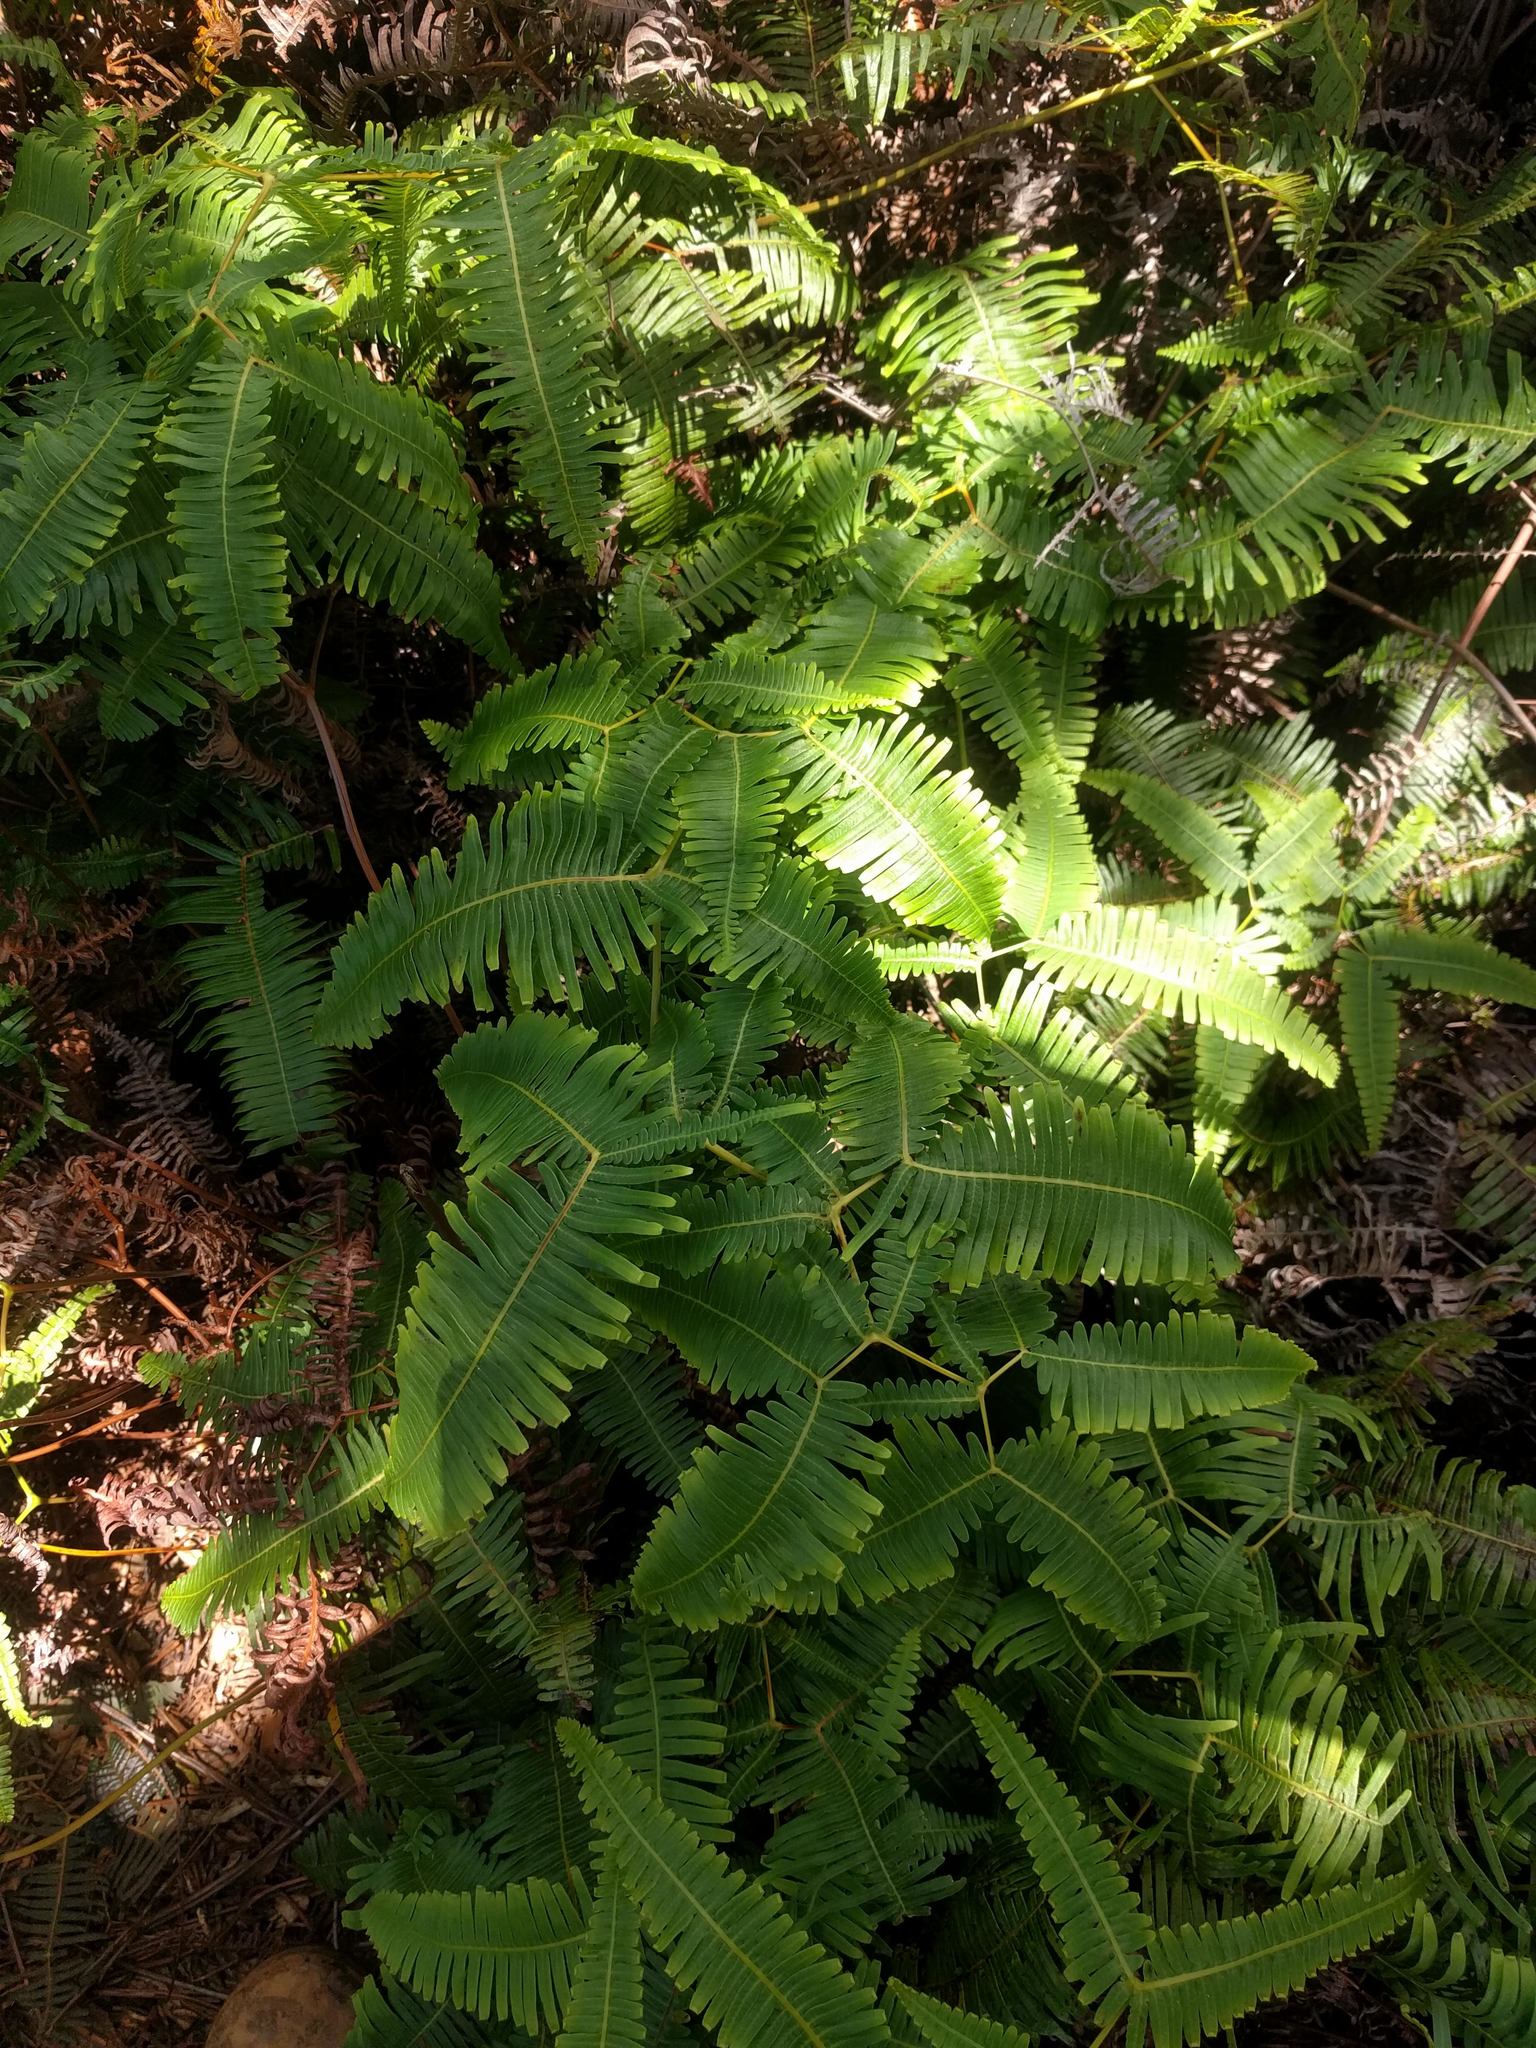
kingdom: Plantae
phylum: Tracheophyta
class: Polypodiopsida
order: Gleicheniales
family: Gleicheniaceae
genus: Dicranopteris
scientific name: Dicranopteris linearis
